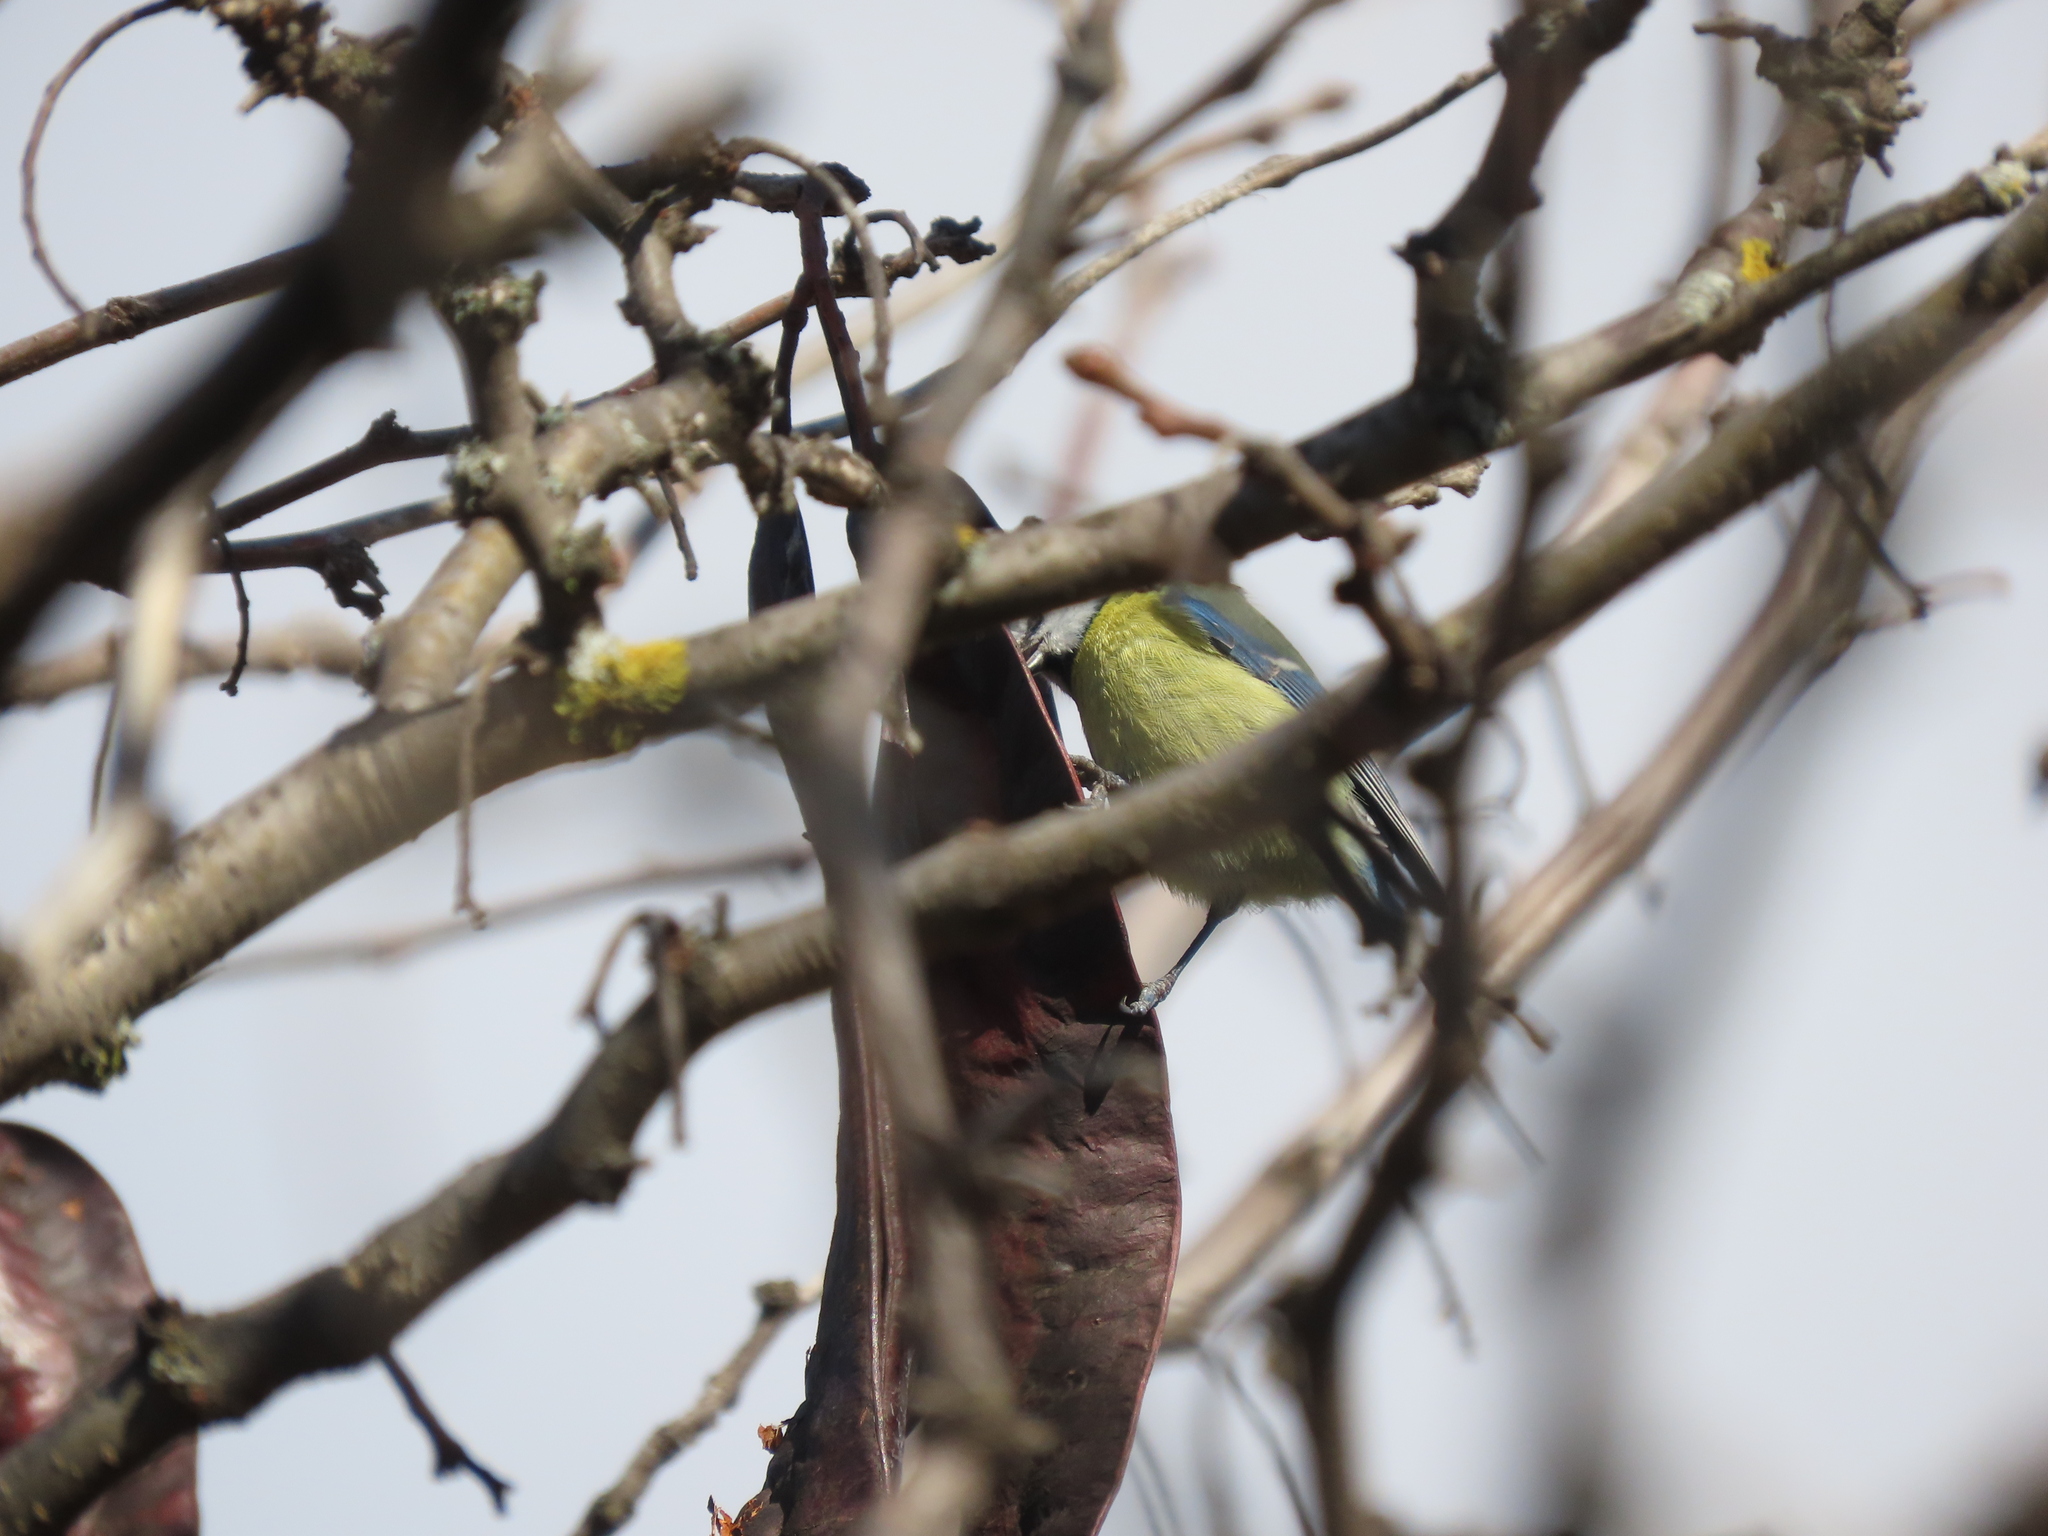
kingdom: Animalia
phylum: Chordata
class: Aves
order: Passeriformes
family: Paridae
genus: Cyanistes
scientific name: Cyanistes caeruleus
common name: Eurasian blue tit
